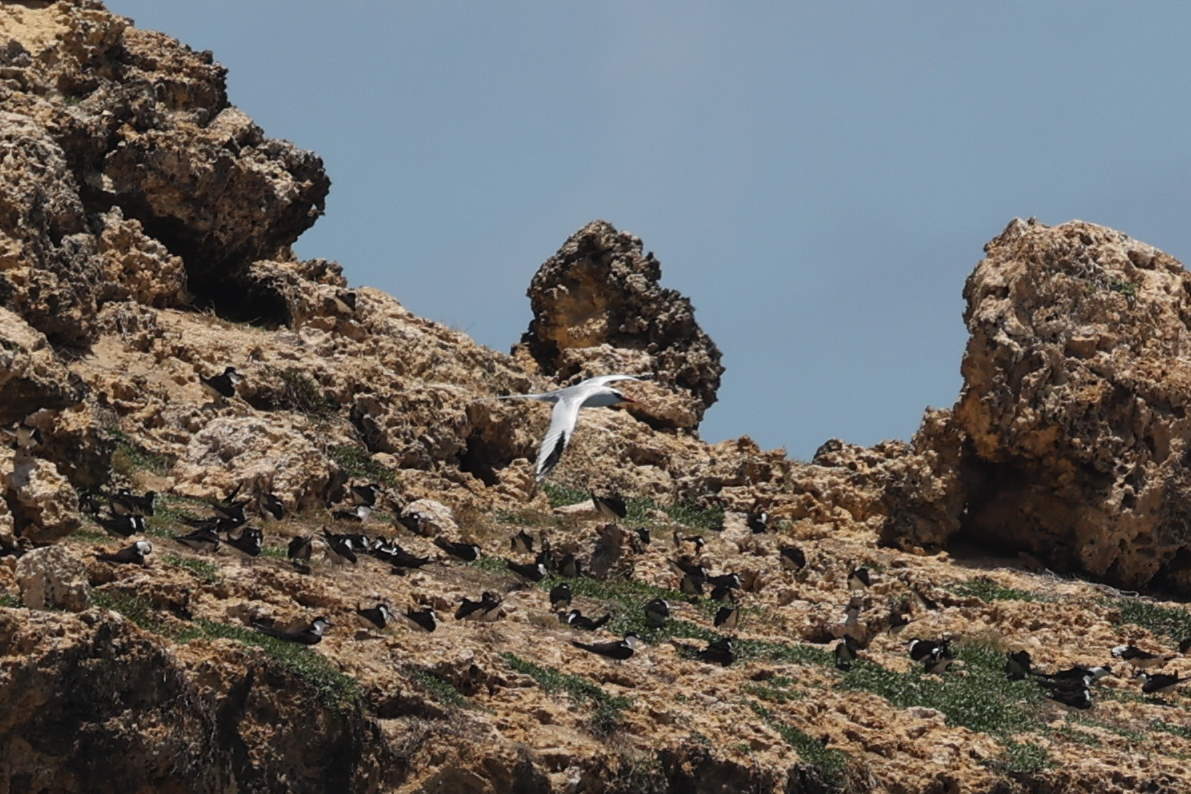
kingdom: Animalia
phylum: Chordata
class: Aves
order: Phaethontiformes
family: Phaethontidae
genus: Phaethon
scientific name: Phaethon aethereus
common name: Red-billed tropicbird
